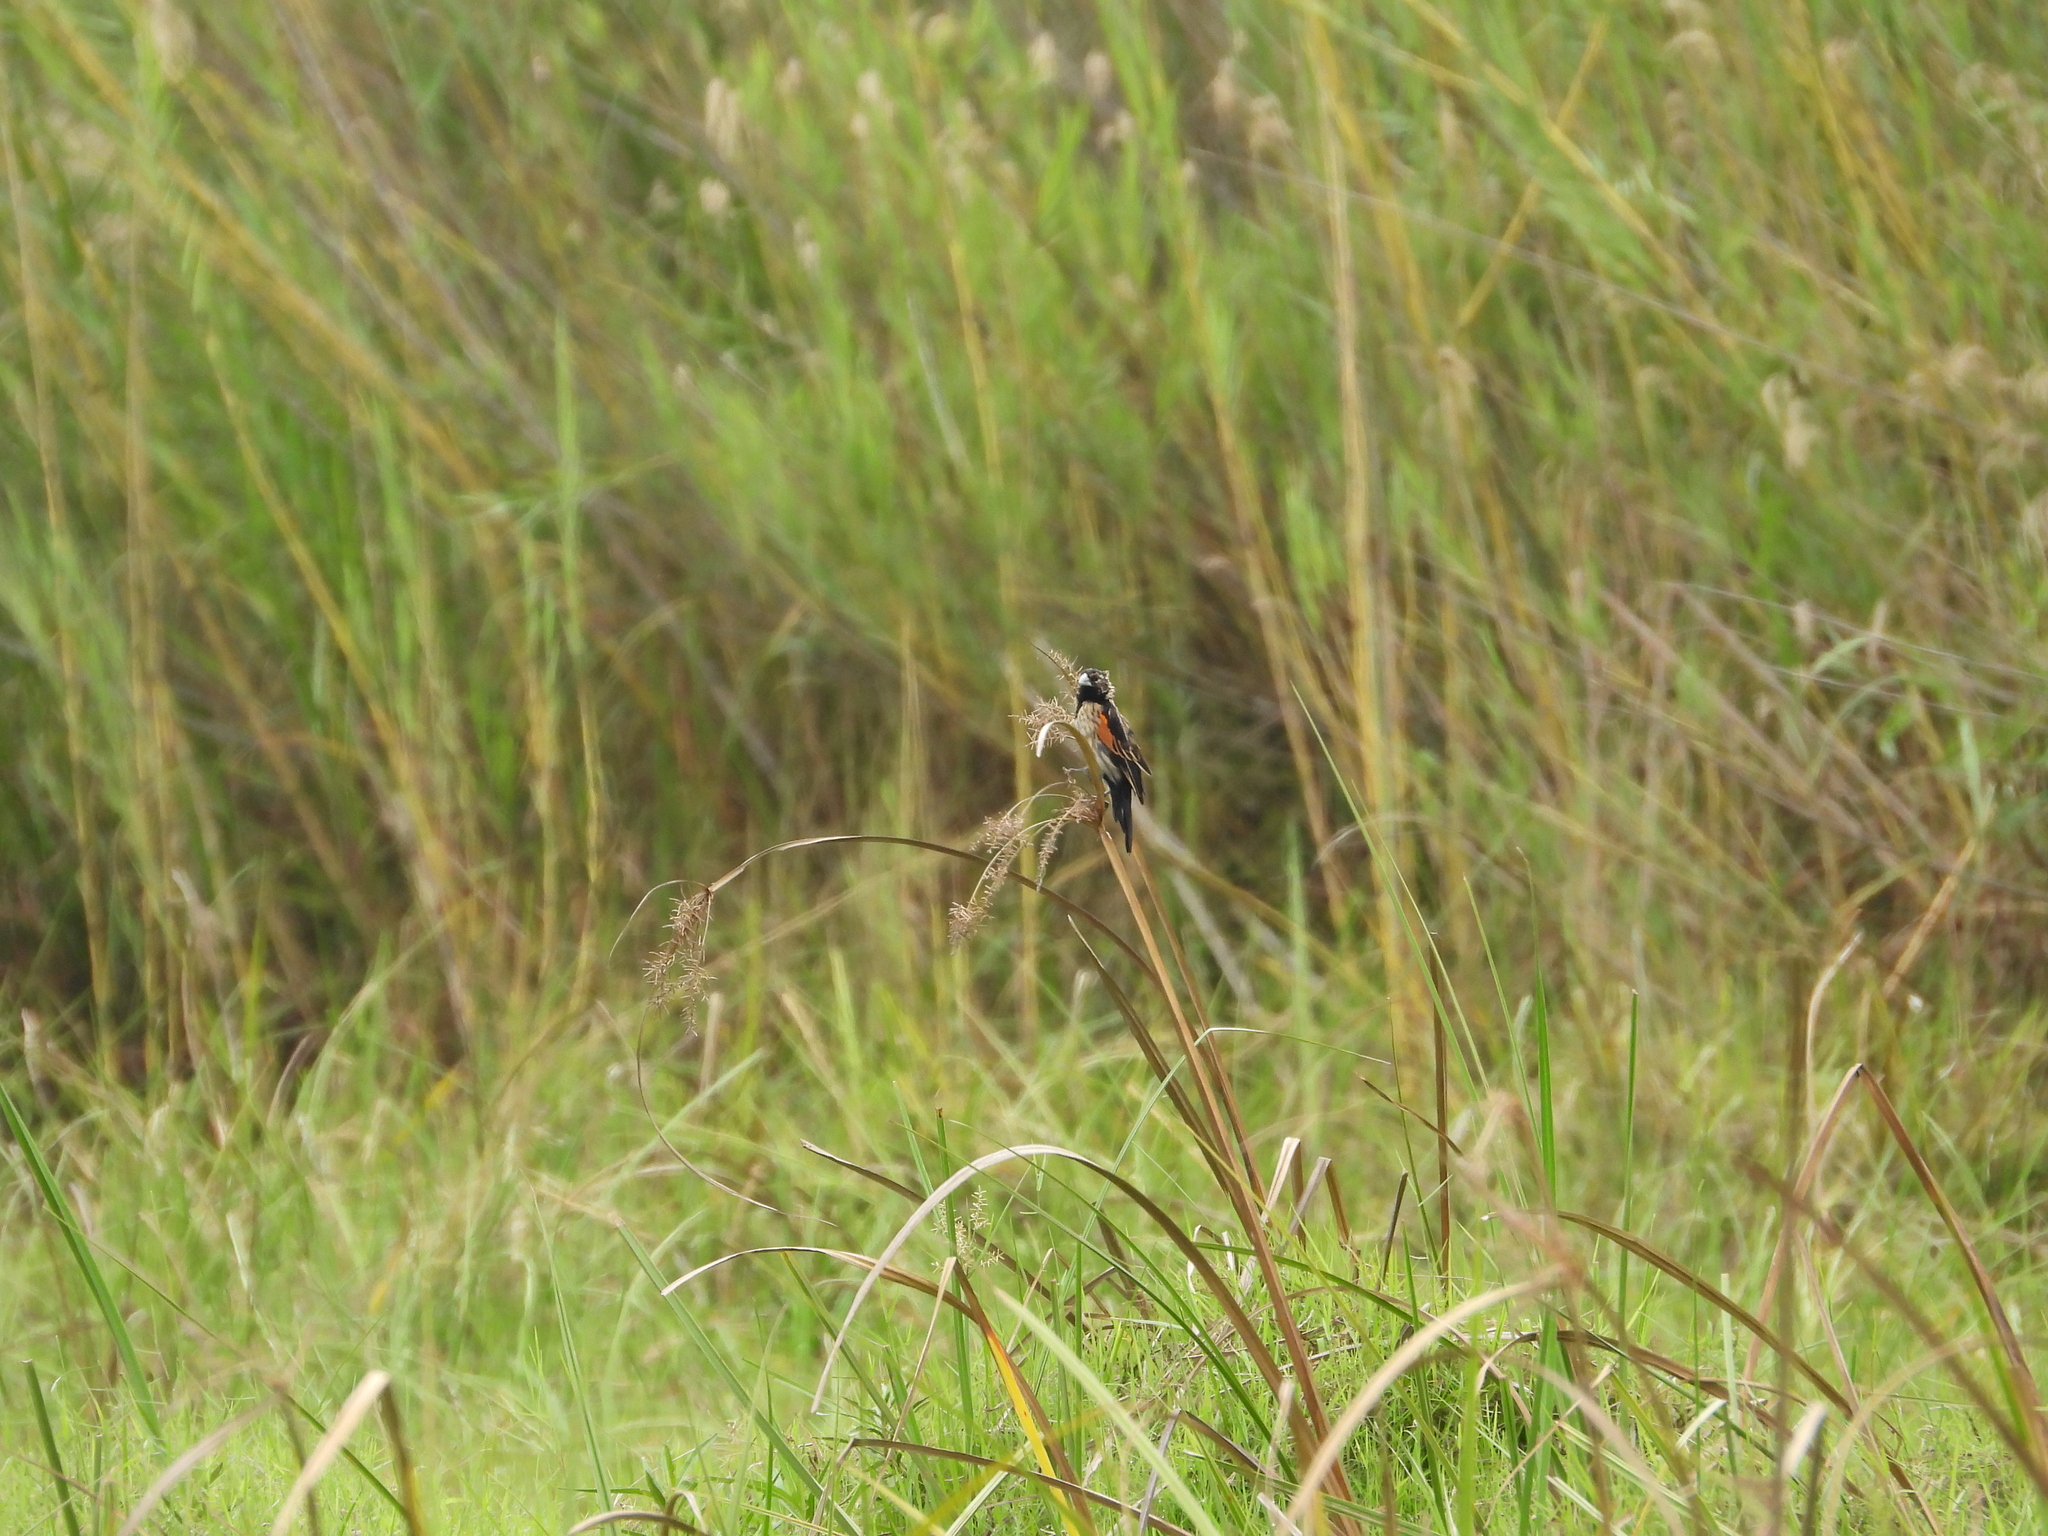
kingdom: Animalia
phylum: Chordata
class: Aves
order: Passeriformes
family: Ploceidae
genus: Euplectes
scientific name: Euplectes axillaris
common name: Fan-tailed widowbird
